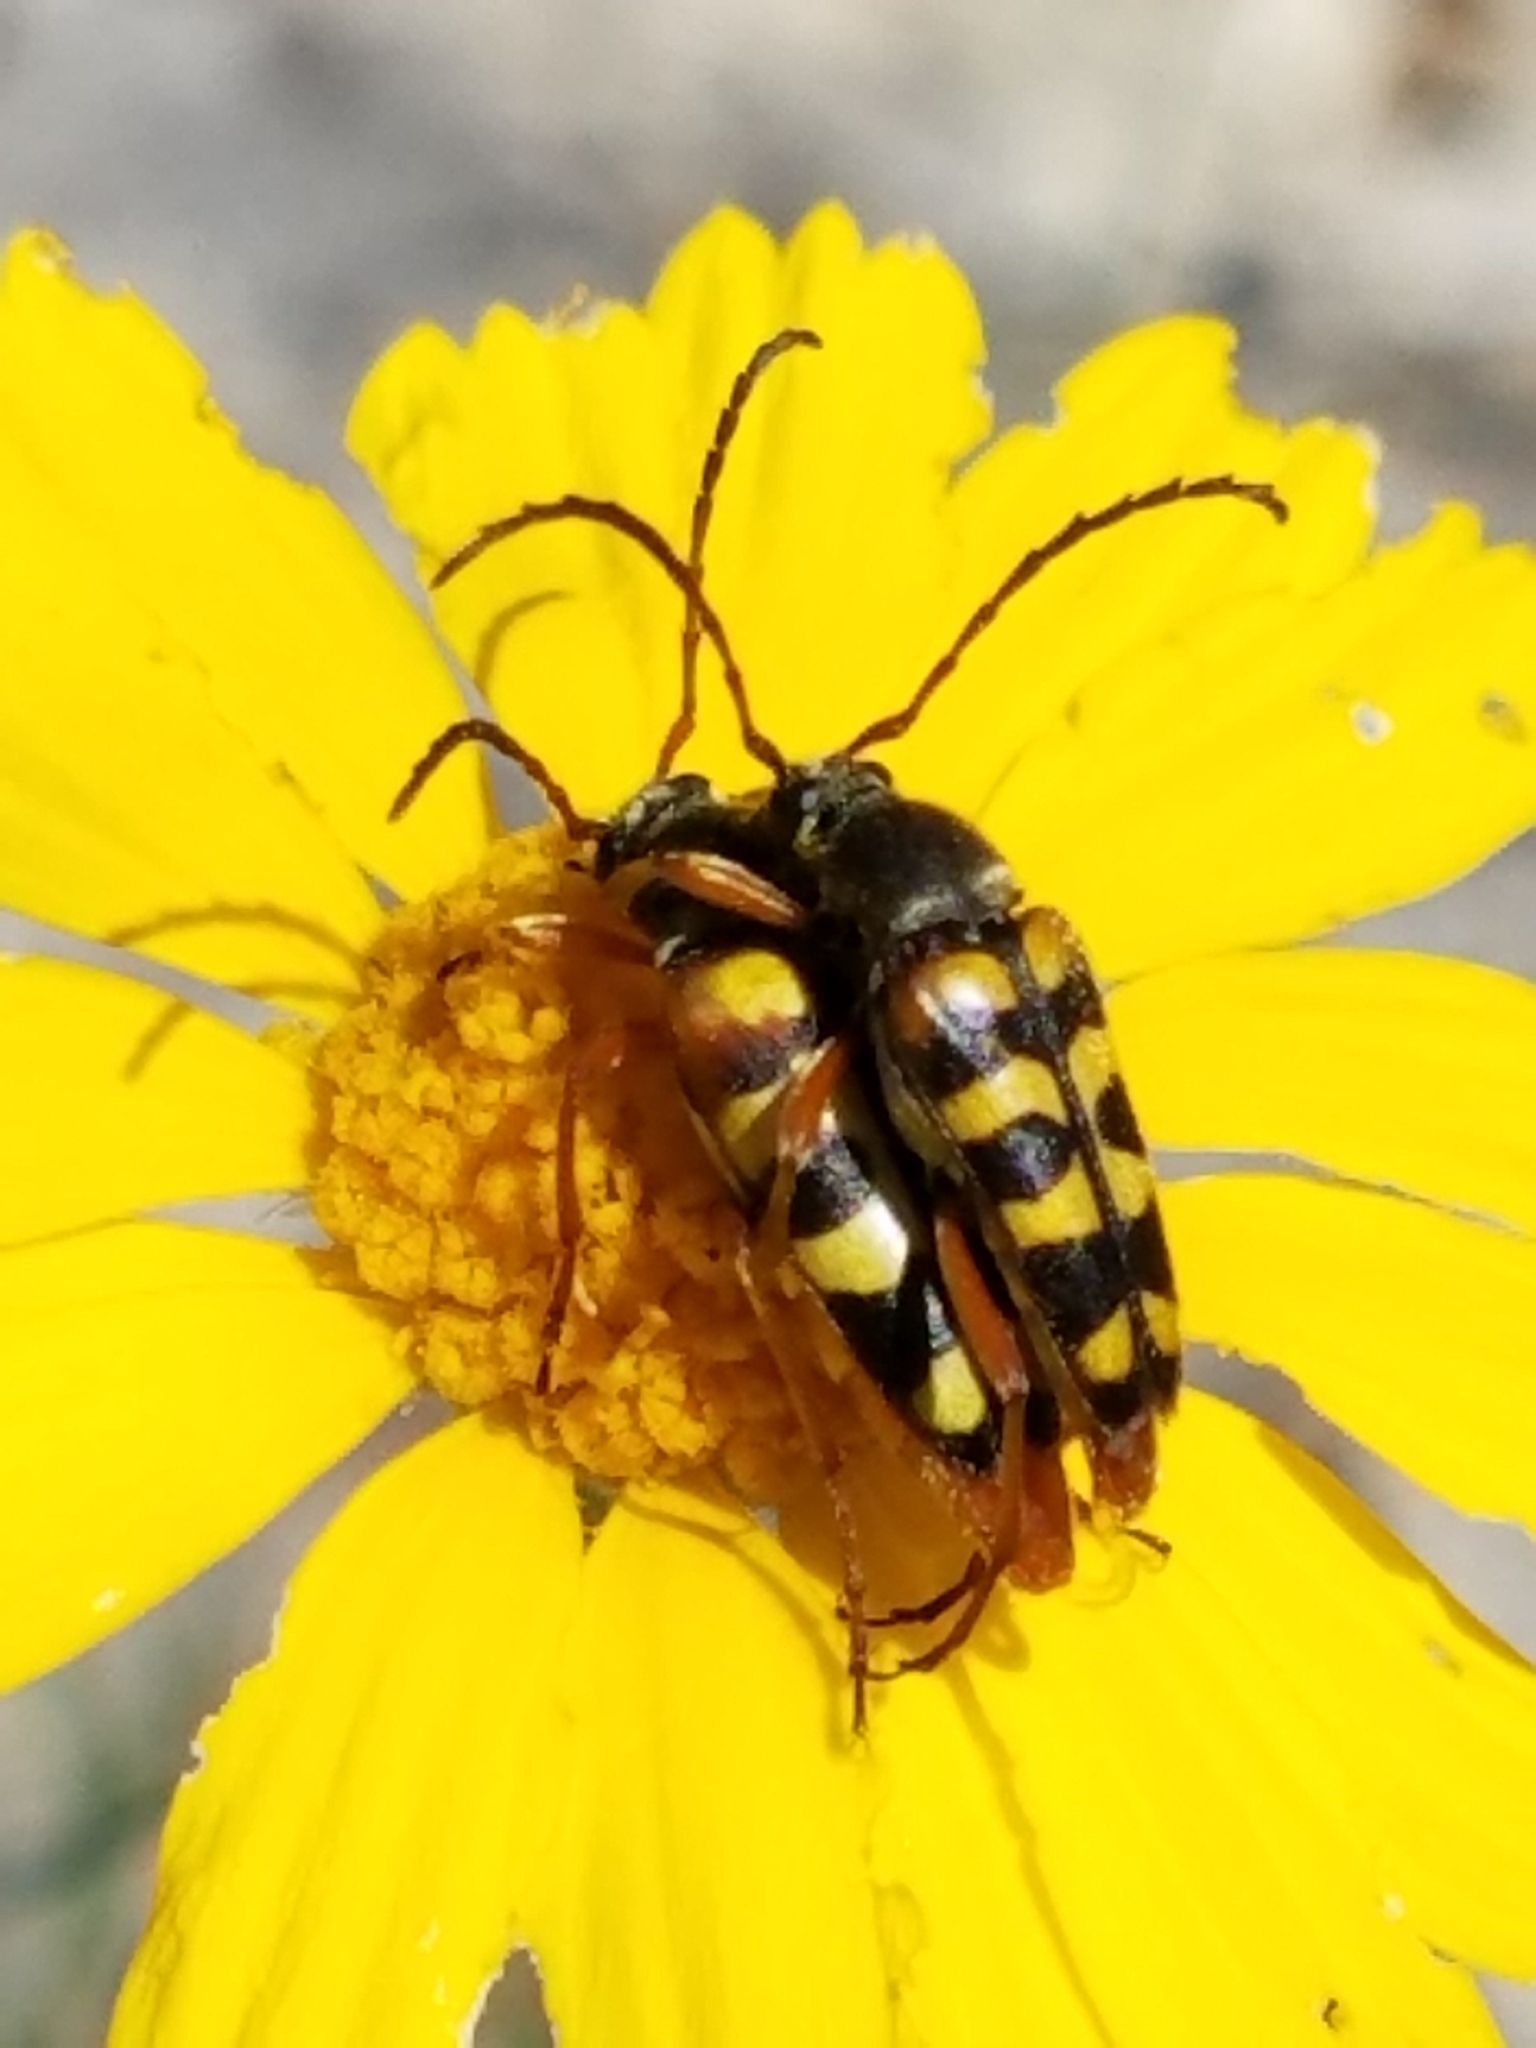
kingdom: Animalia
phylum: Arthropoda
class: Insecta
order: Coleoptera
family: Cerambycidae
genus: Typocerus
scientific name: Typocerus sinuatus
